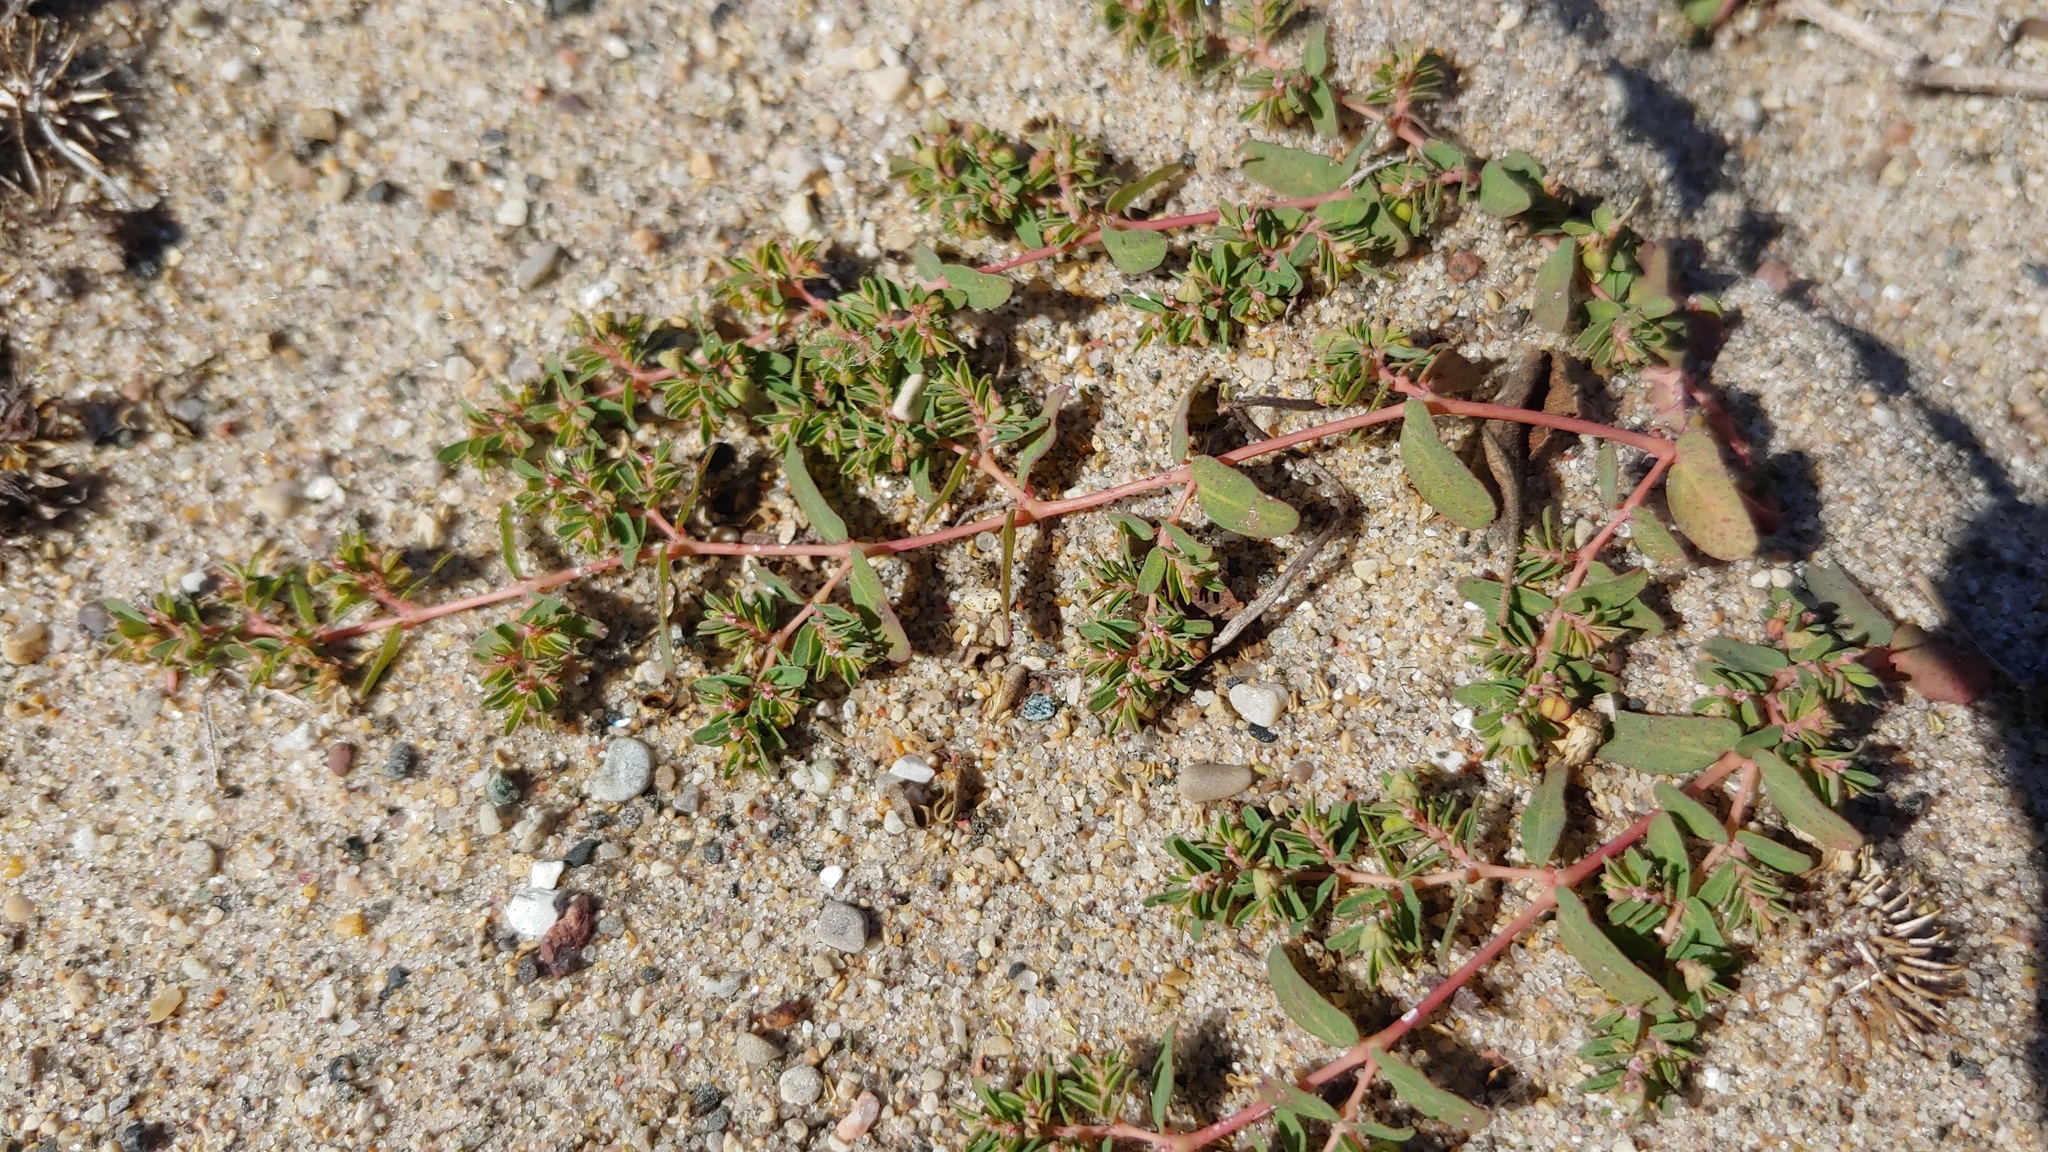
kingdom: Plantae
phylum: Tracheophyta
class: Magnoliopsida
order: Malpighiales
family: Euphorbiaceae
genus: Euphorbia
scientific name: Euphorbia glyptosperma
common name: Corrugate-seeded spurge
